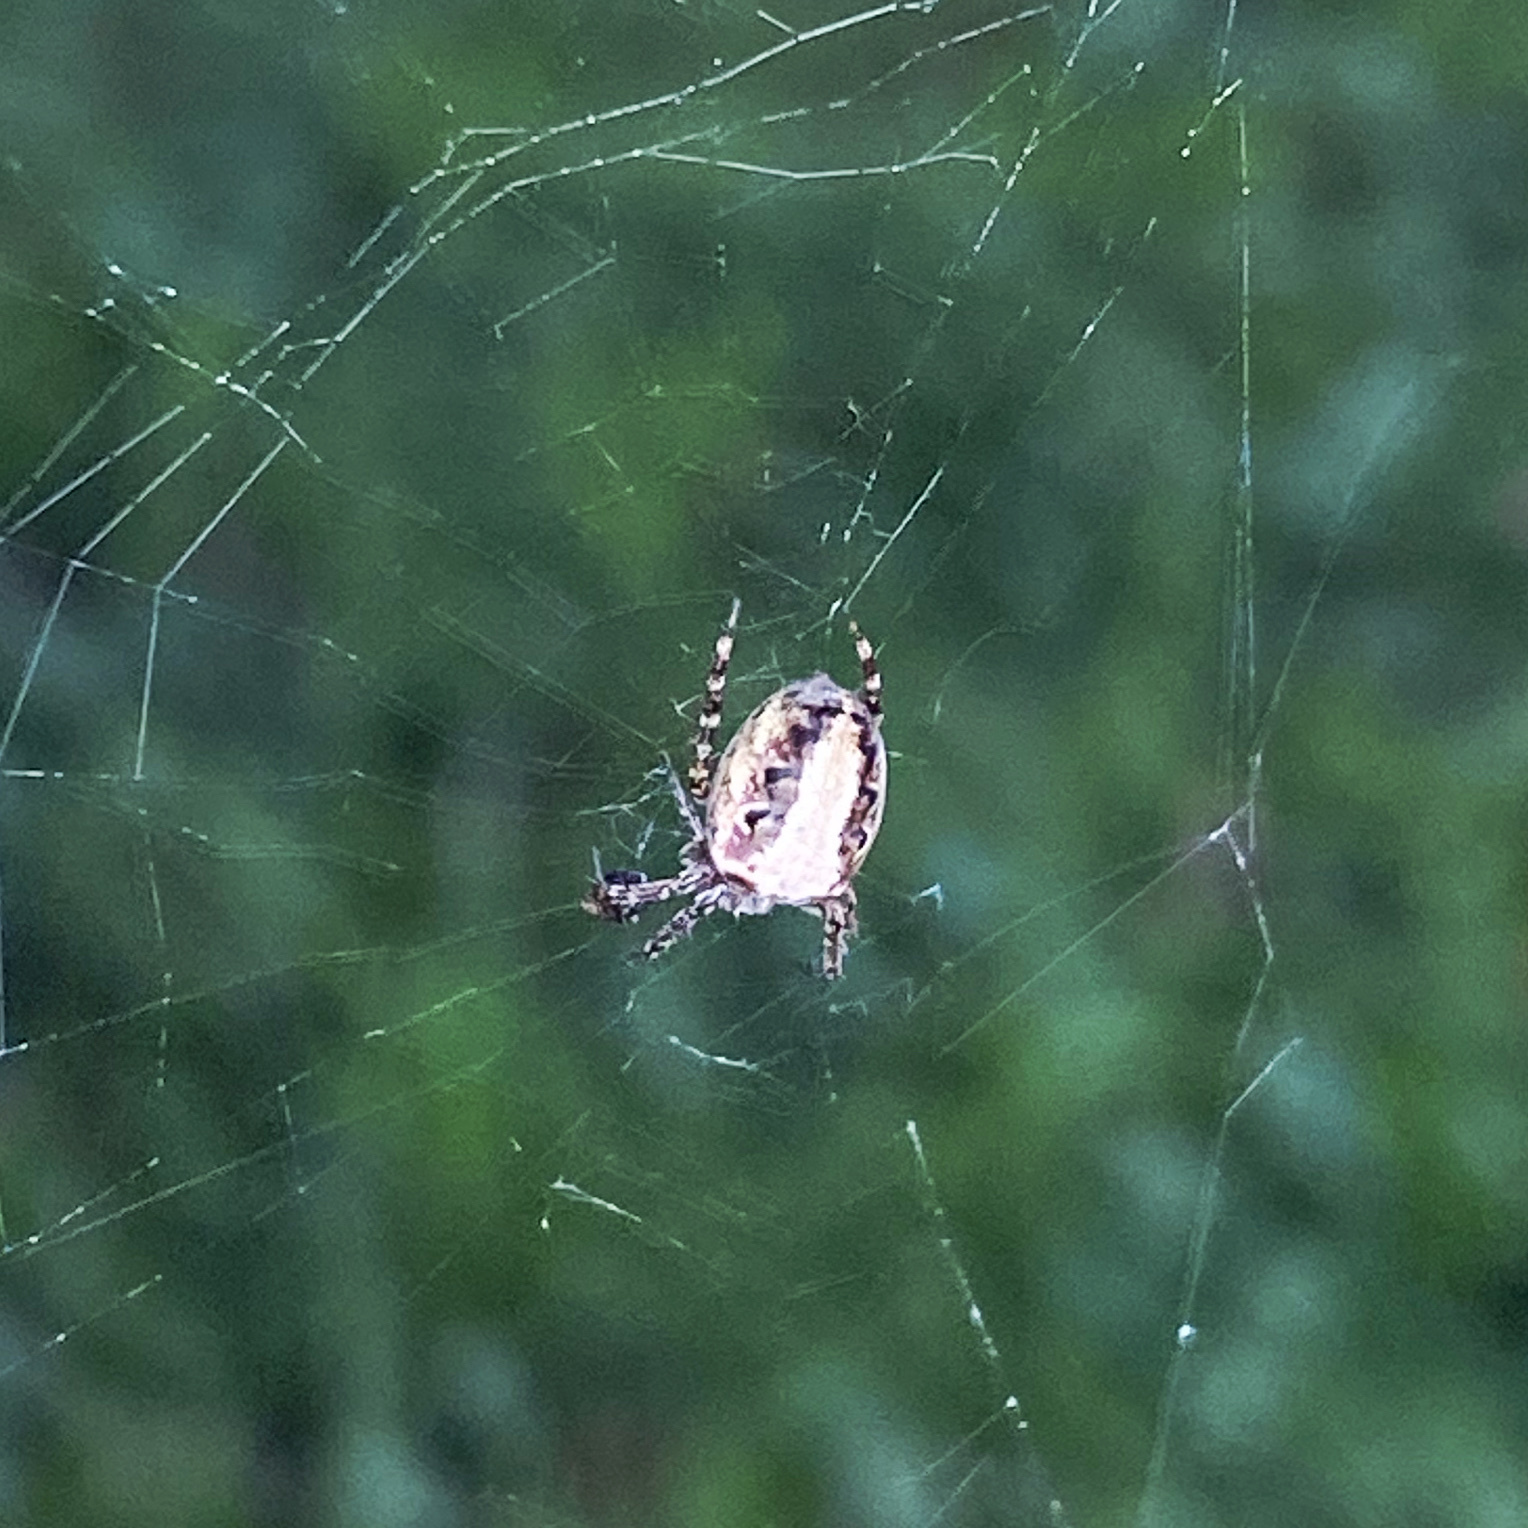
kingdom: Animalia
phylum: Arthropoda
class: Arachnida
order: Araneae
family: Araneidae
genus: Plebs
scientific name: Plebs eburnus
